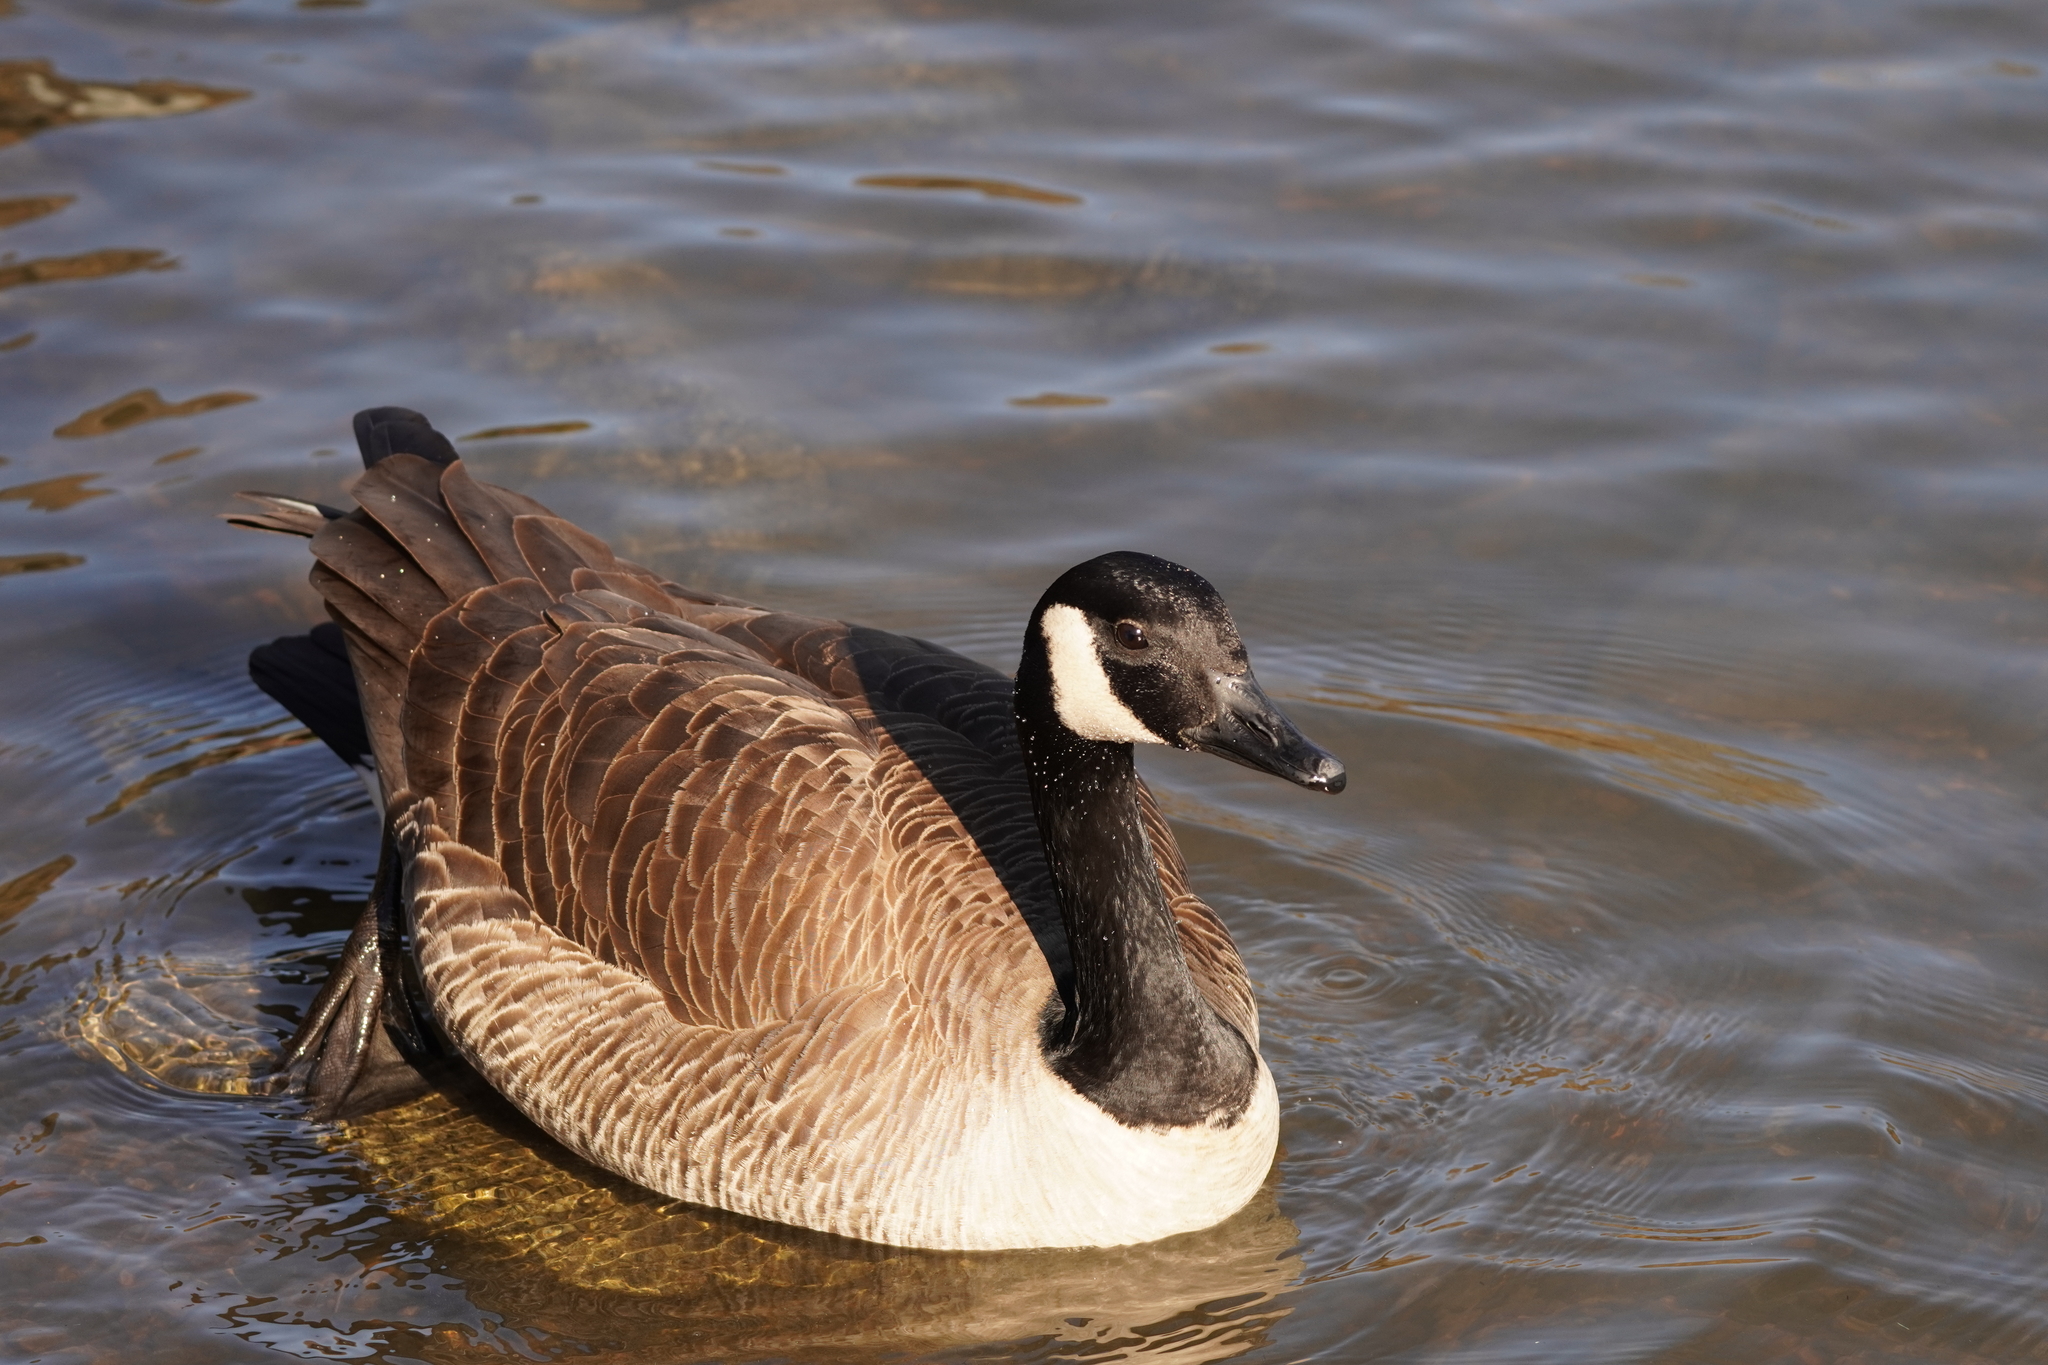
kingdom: Animalia
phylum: Chordata
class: Aves
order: Anseriformes
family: Anatidae
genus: Branta
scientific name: Branta canadensis
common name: Canada goose
